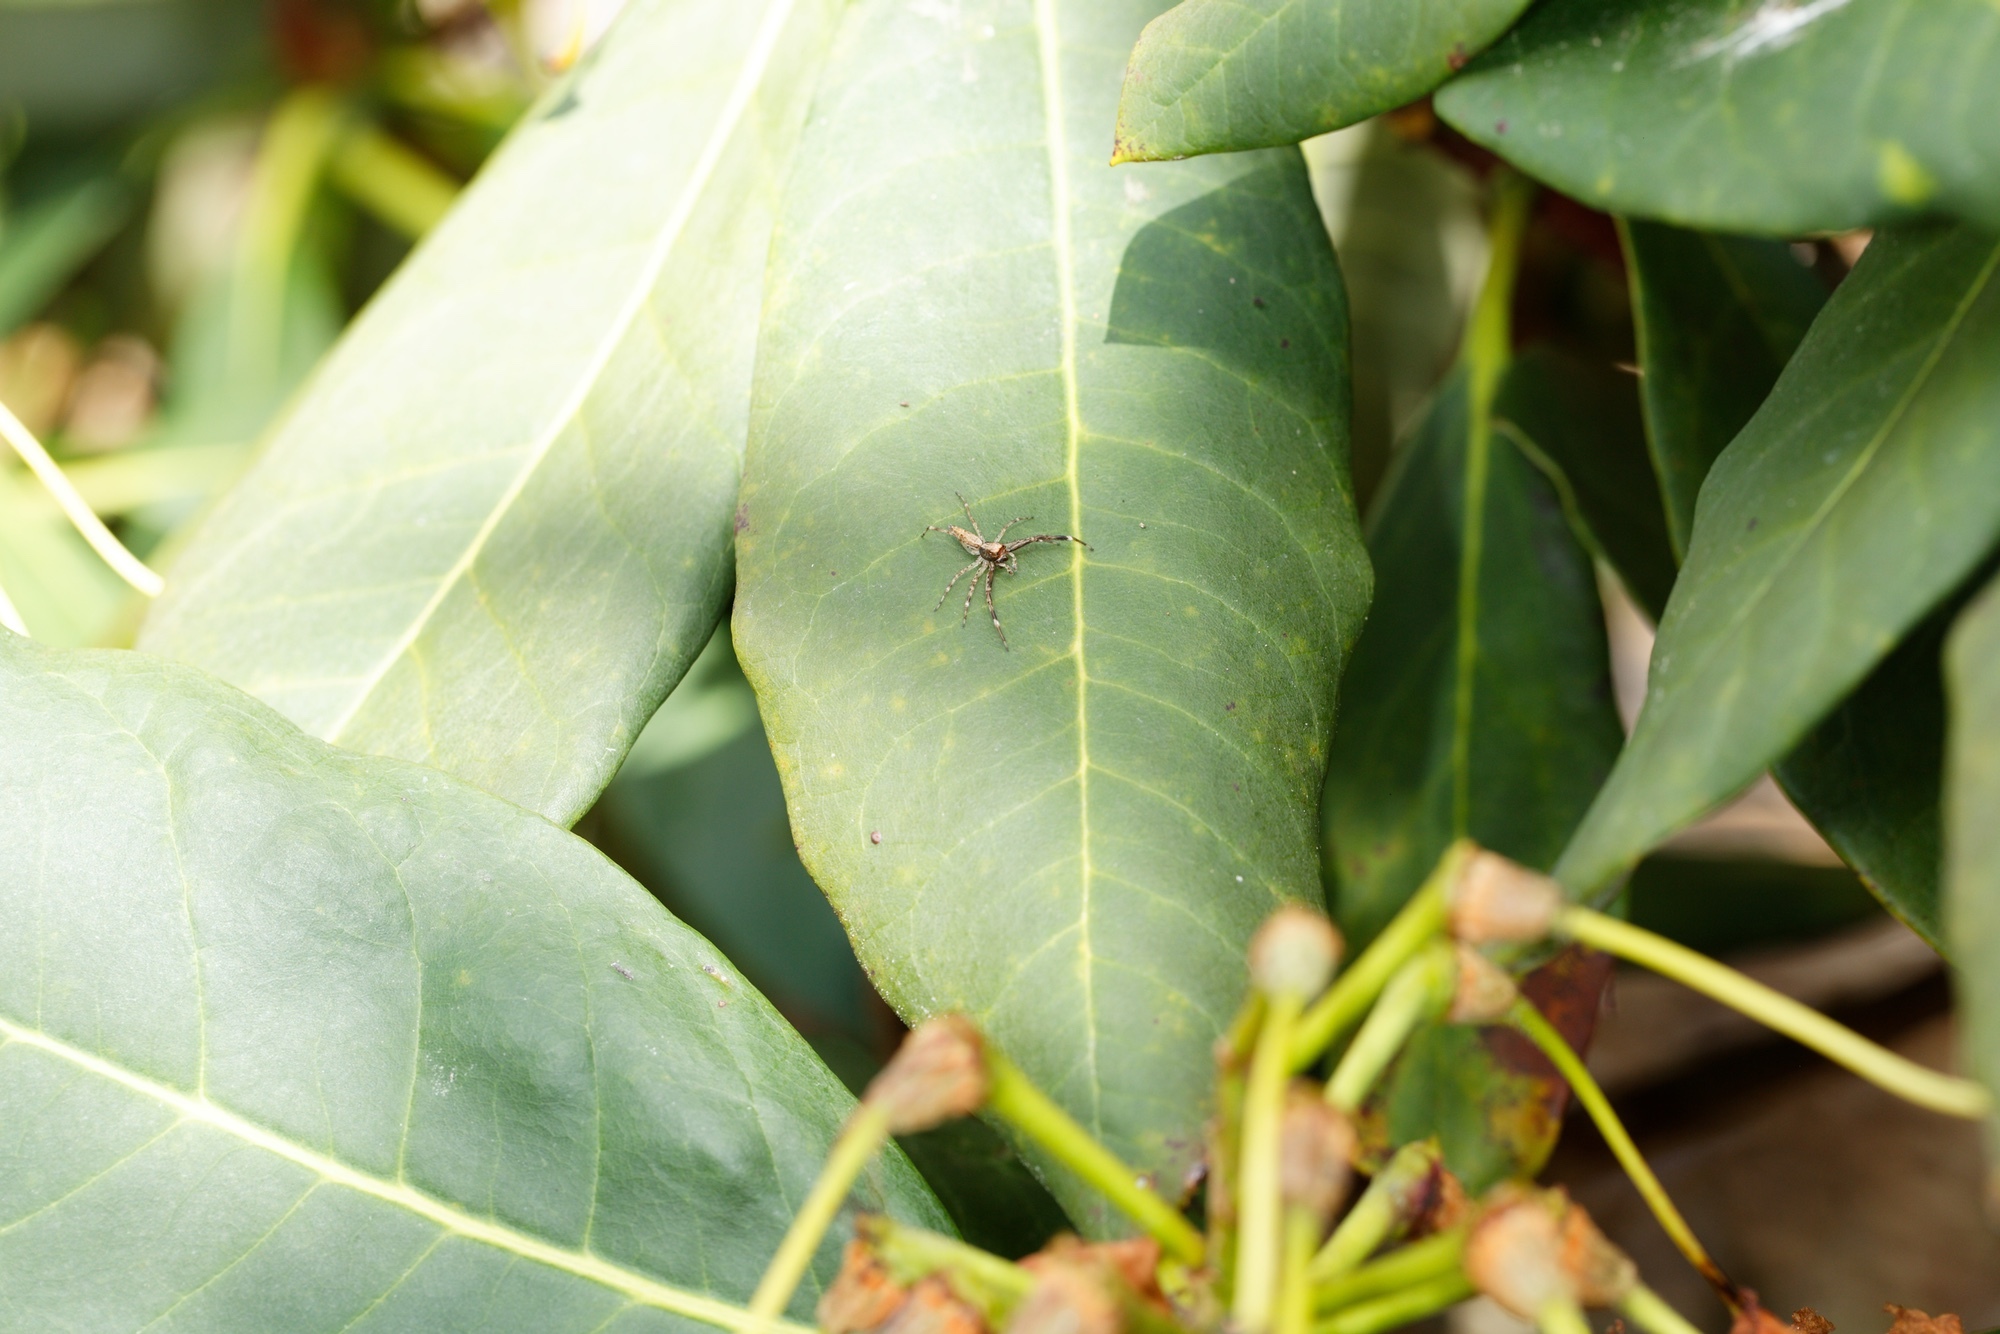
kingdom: Animalia
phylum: Arthropoda
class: Arachnida
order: Araneae
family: Salticidae
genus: Helpis
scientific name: Helpis minitabunda
